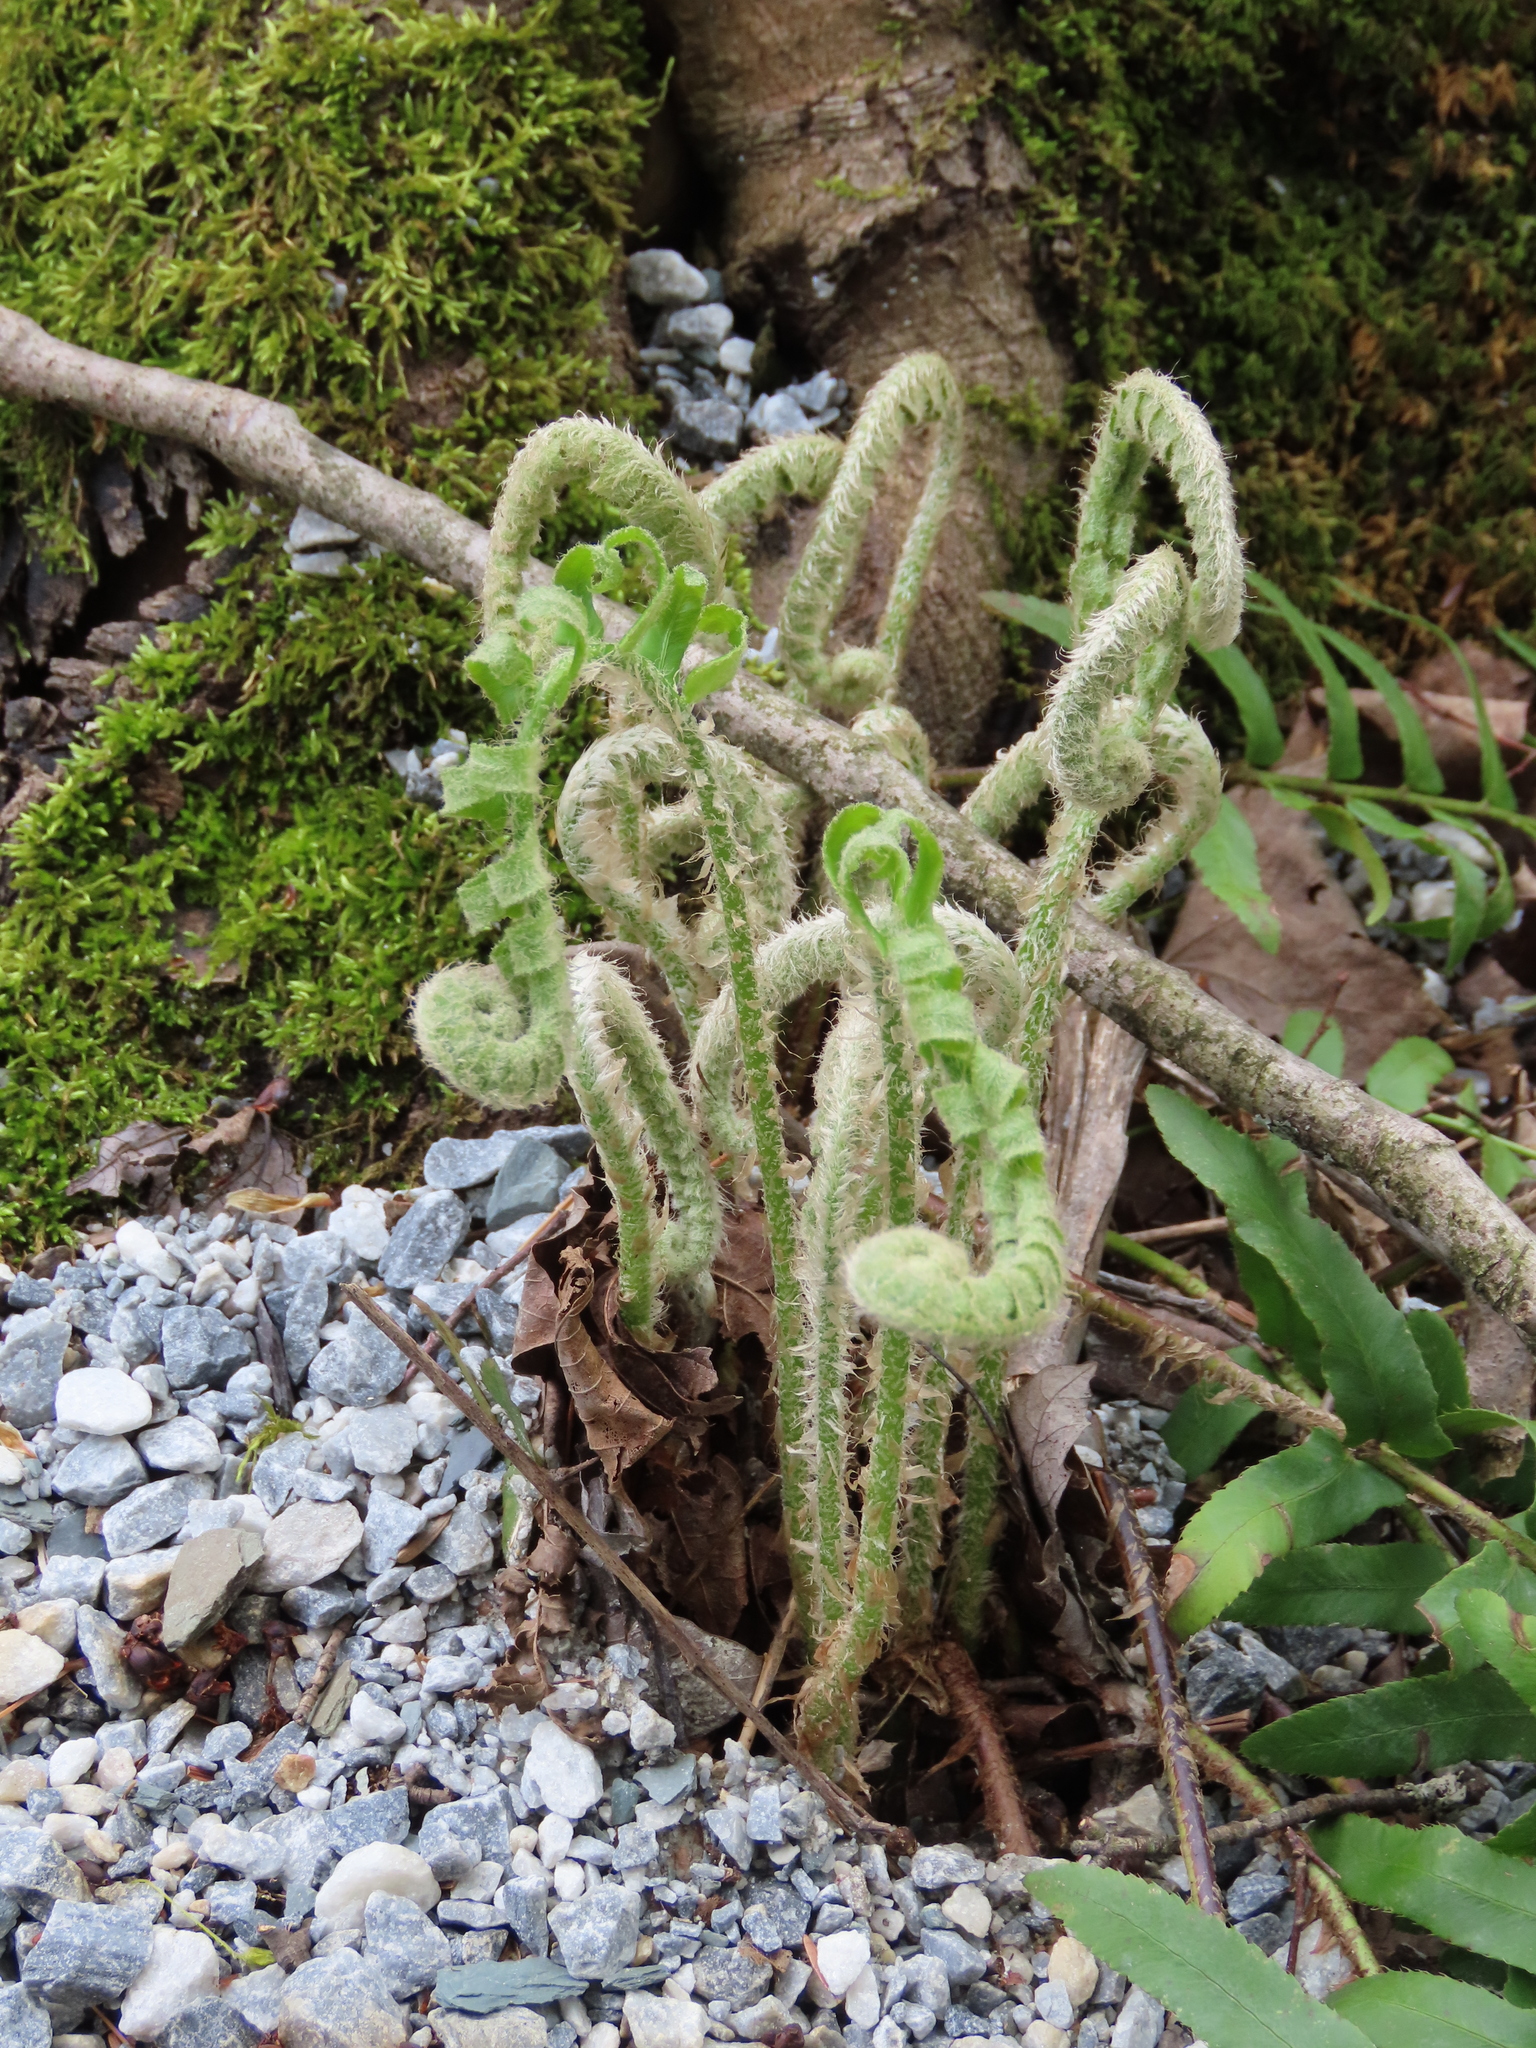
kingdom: Plantae
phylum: Tracheophyta
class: Polypodiopsida
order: Polypodiales
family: Dryopteridaceae
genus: Polystichum
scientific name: Polystichum acrostichoides
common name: Christmas fern
